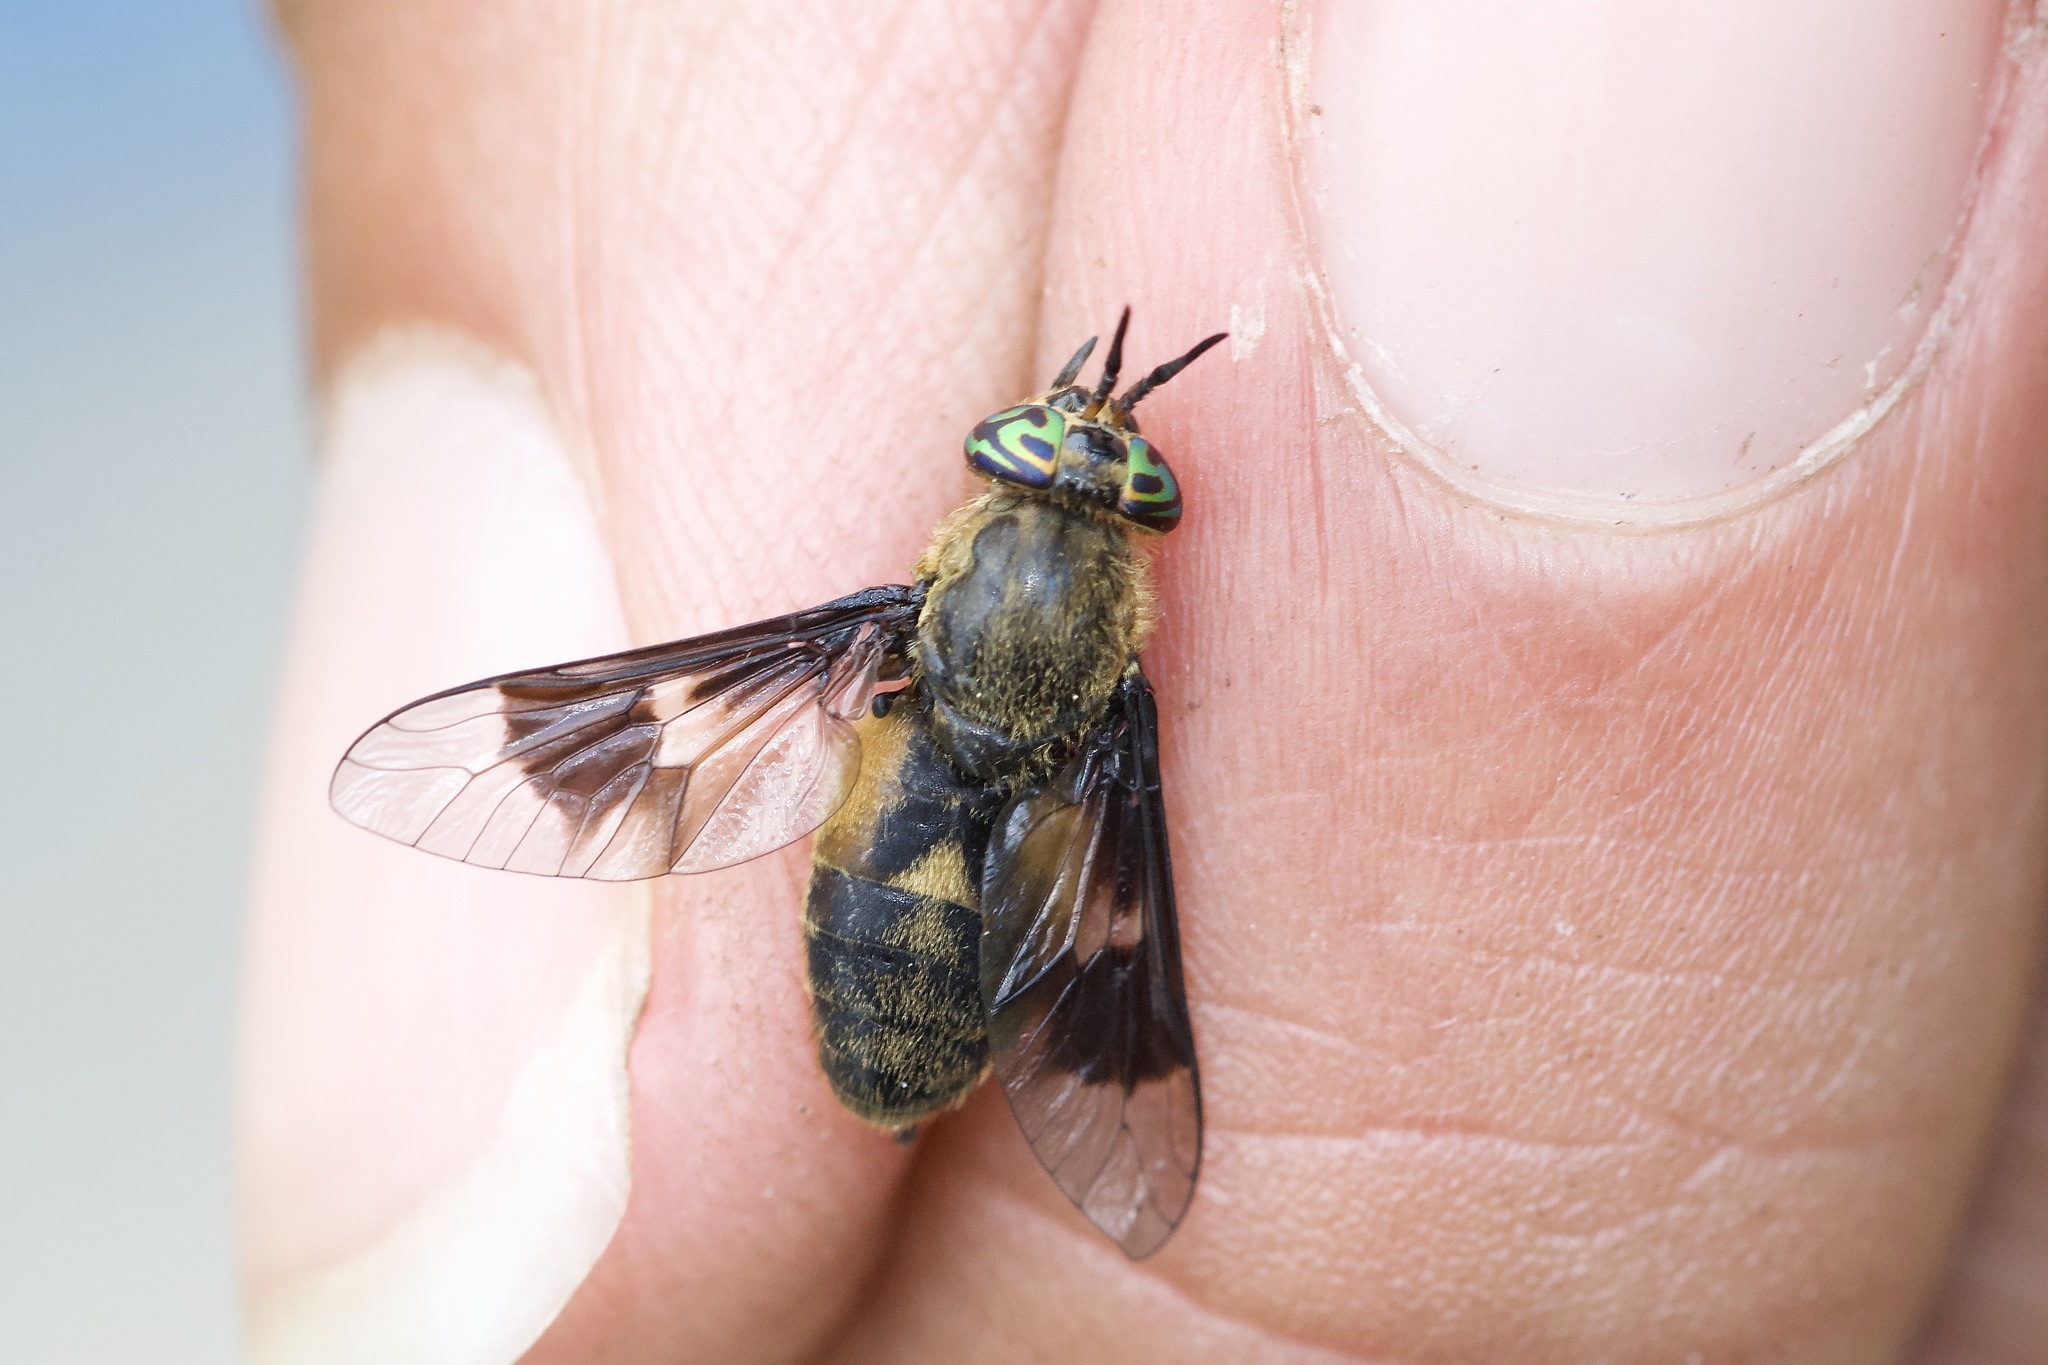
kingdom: Animalia
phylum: Arthropoda
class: Insecta
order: Diptera
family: Tabanidae
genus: Chrysops
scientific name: Chrysops excitans
